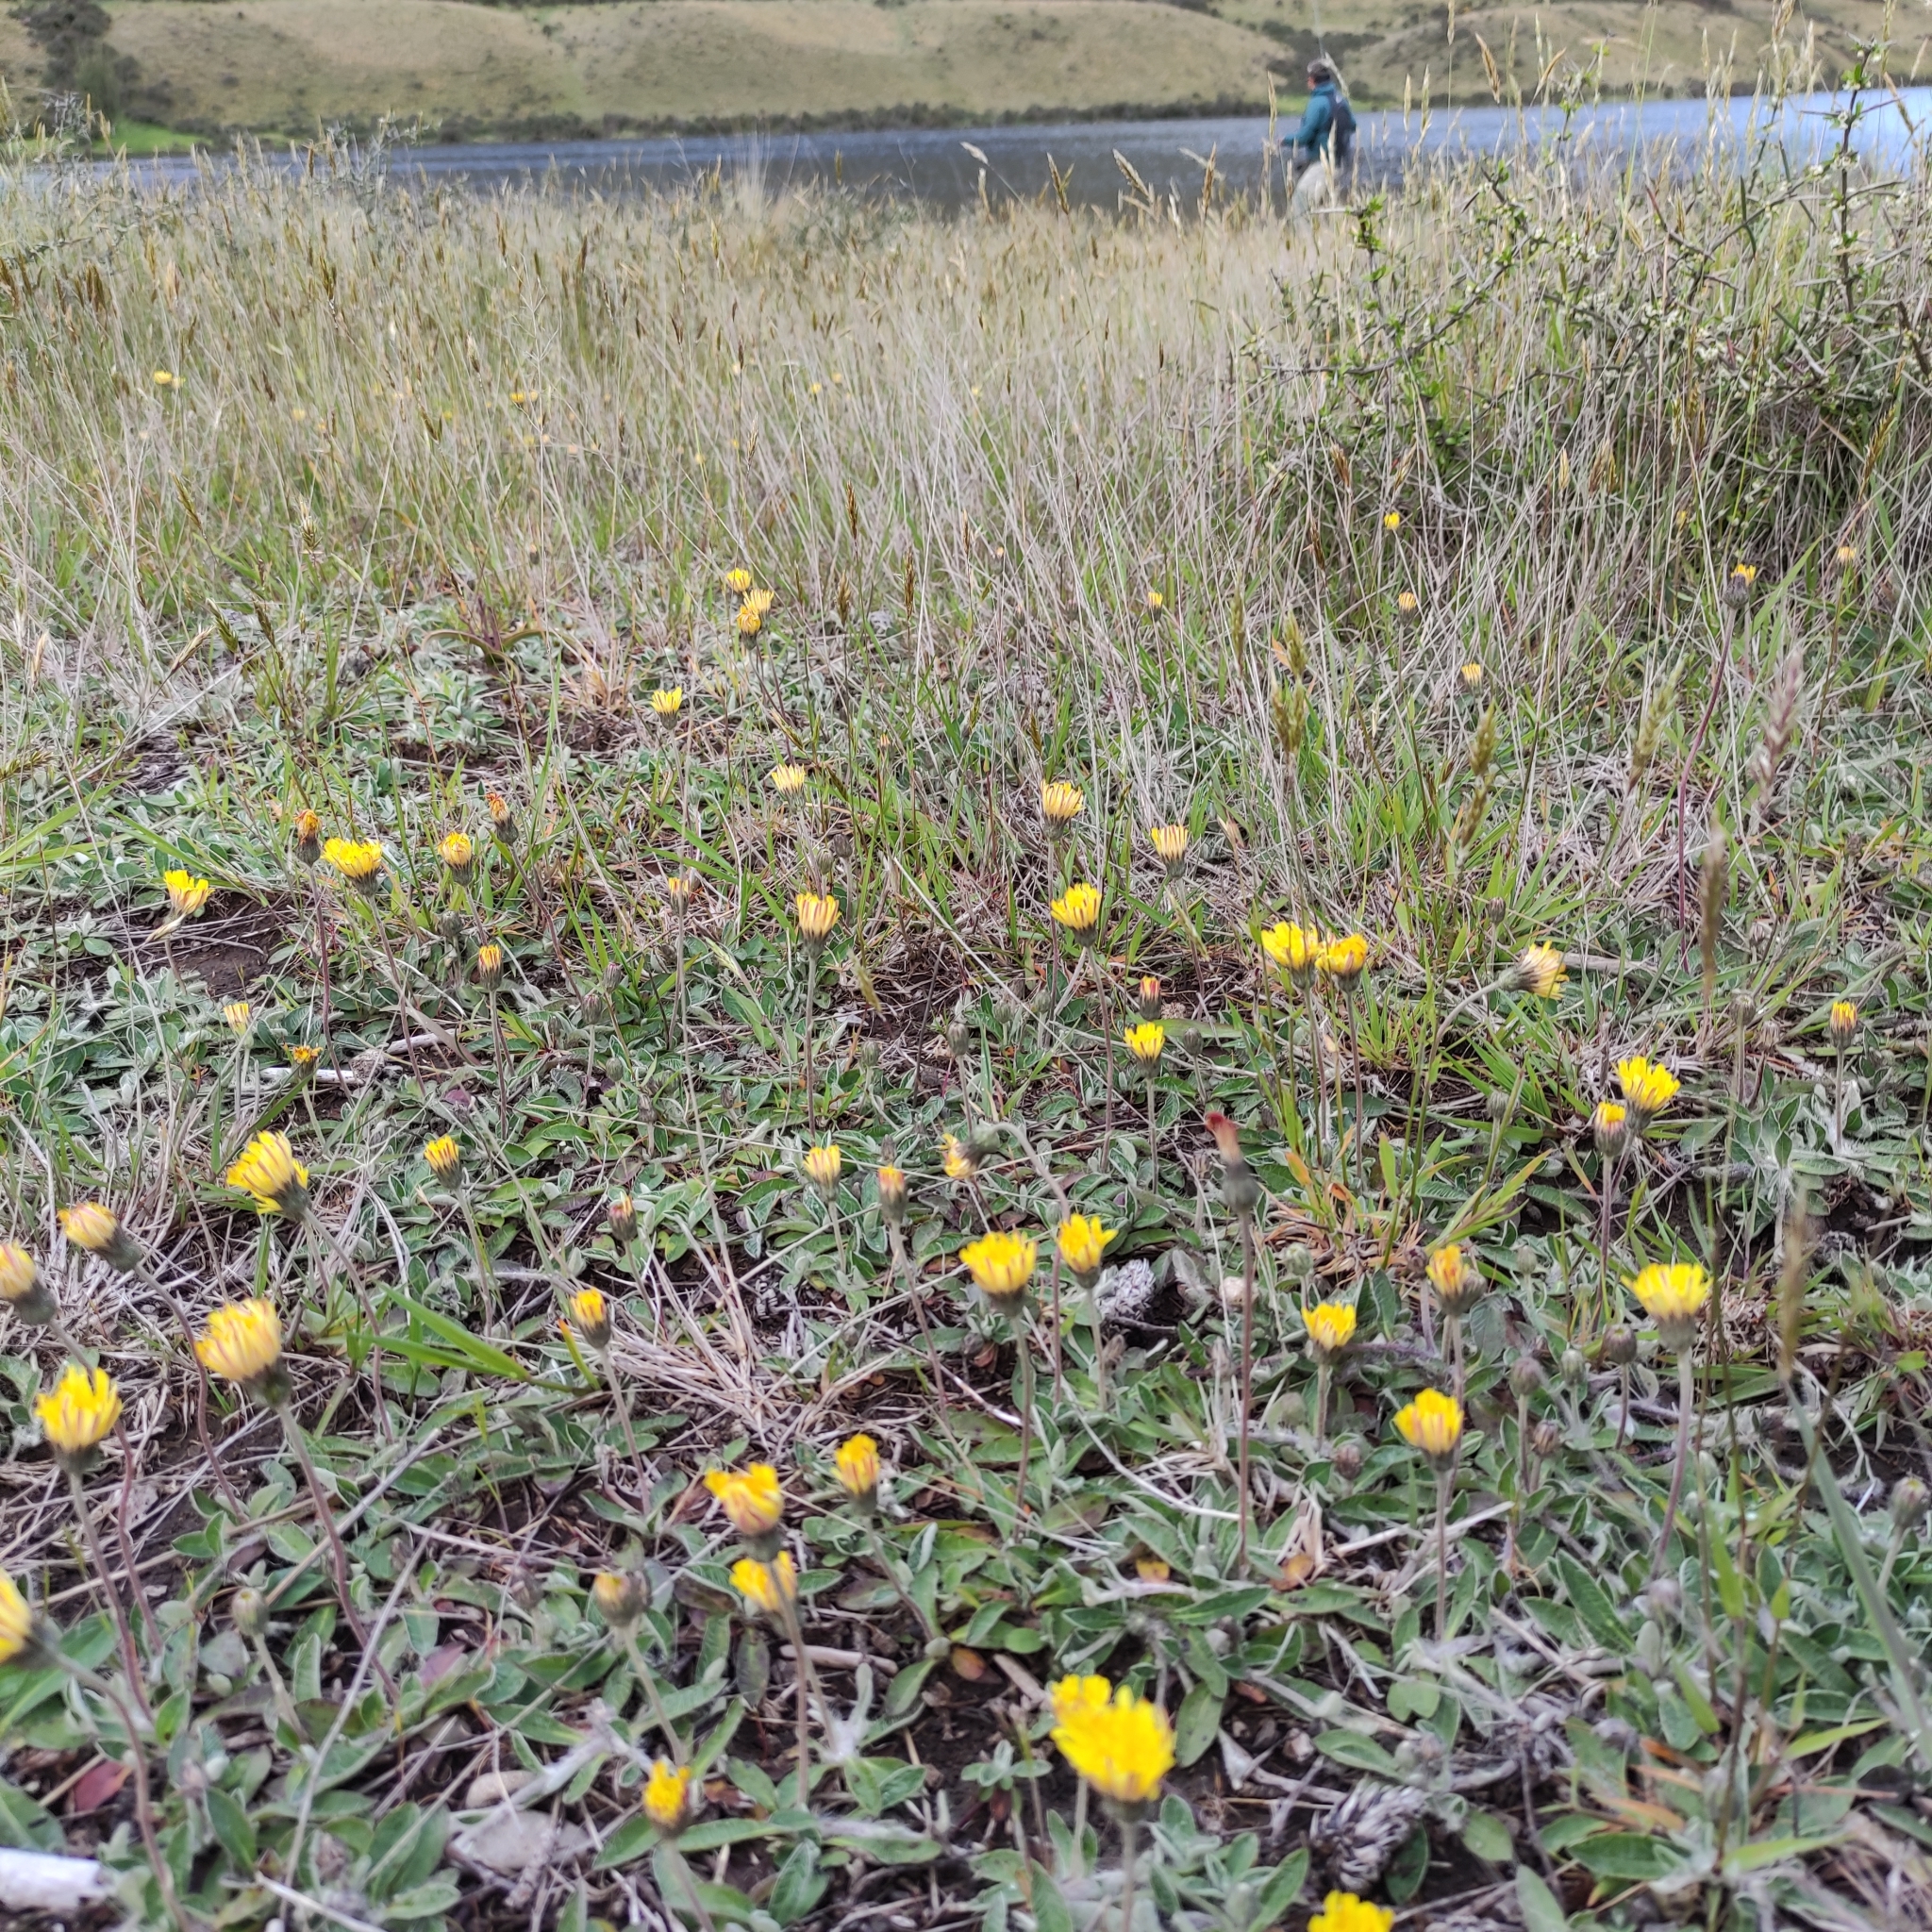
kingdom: Plantae
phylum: Tracheophyta
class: Magnoliopsida
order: Asterales
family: Asteraceae
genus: Pilosella
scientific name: Pilosella officinarum
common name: Mouse-ear hawkweed
